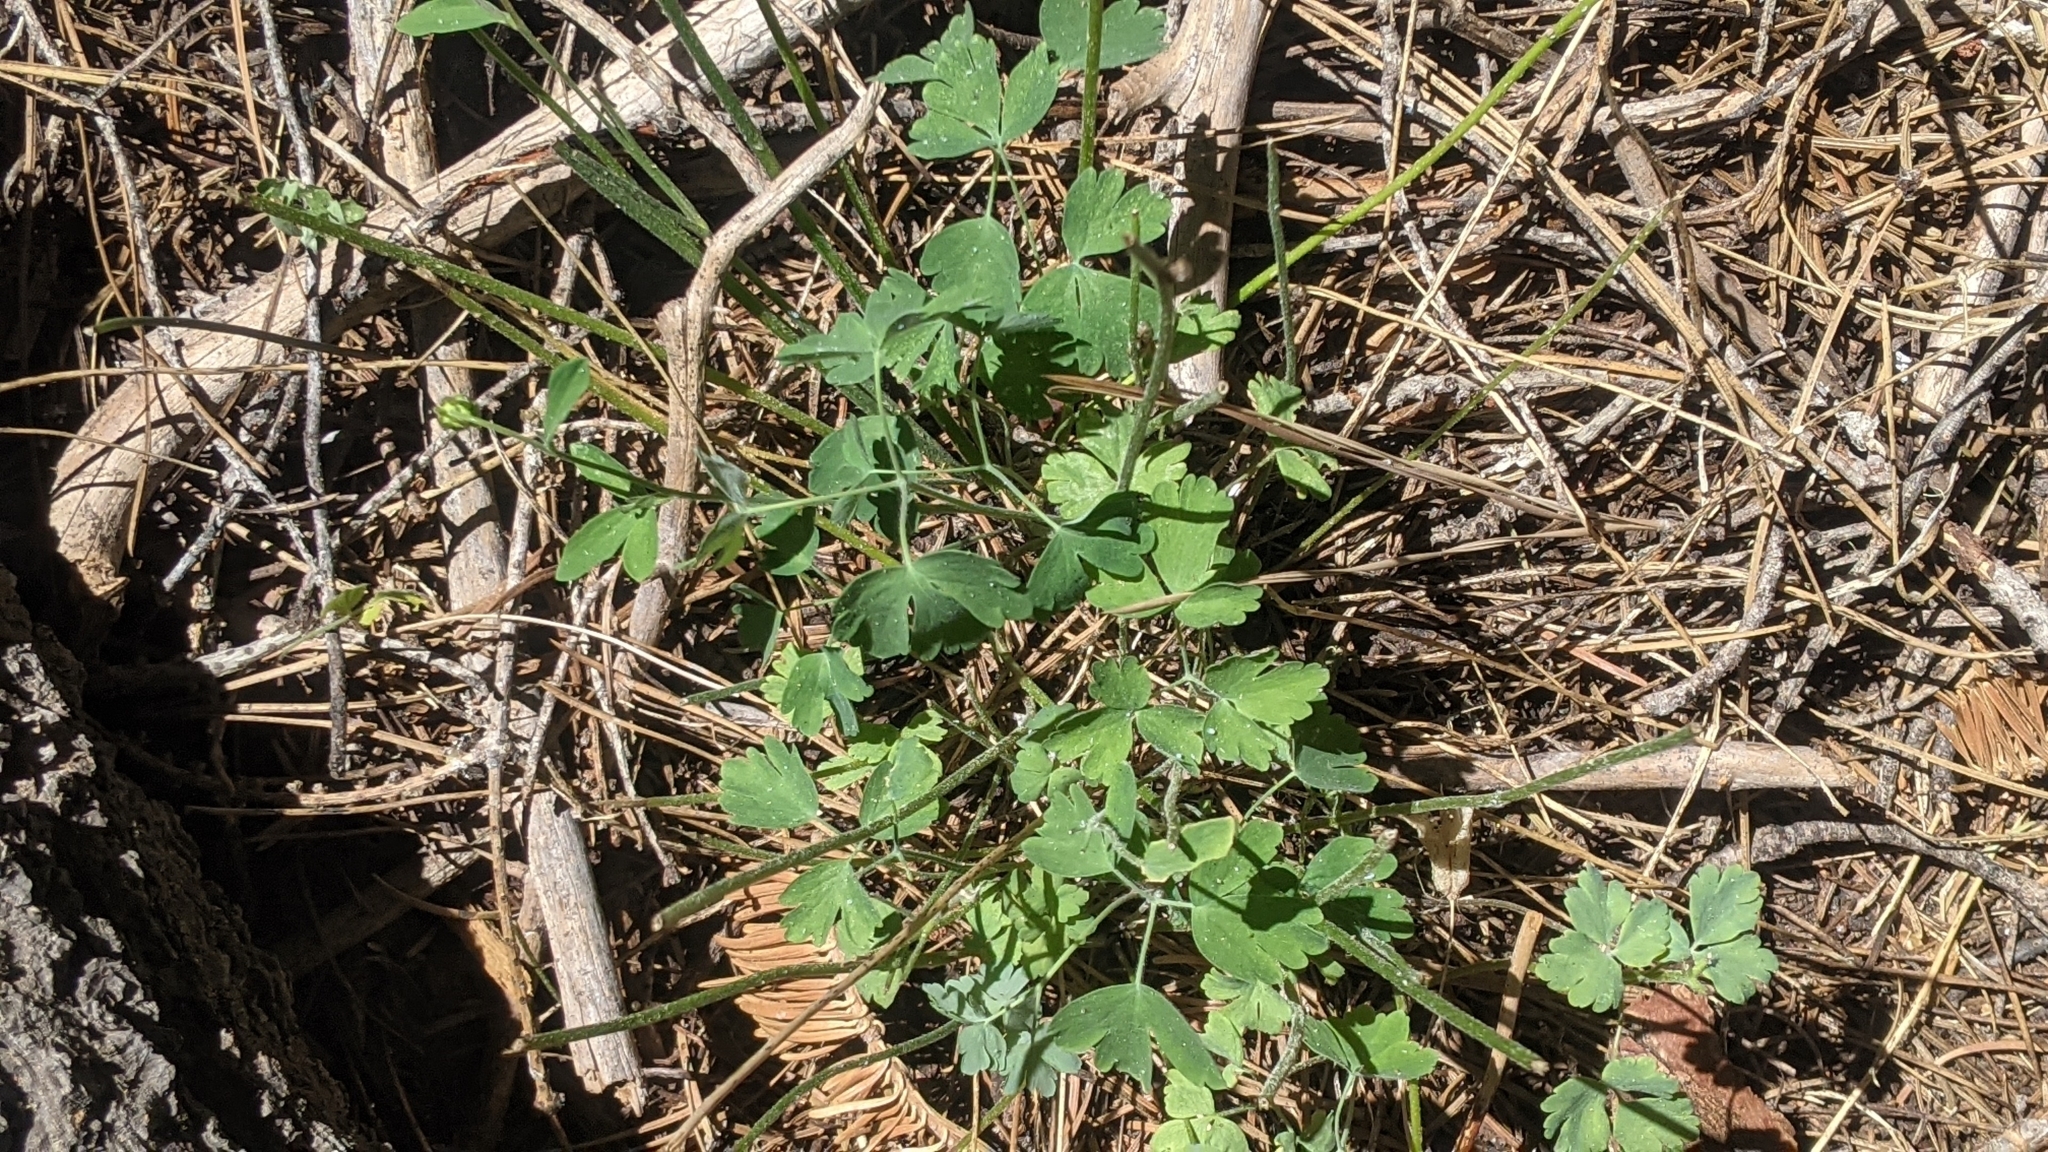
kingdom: Plantae
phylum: Tracheophyta
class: Magnoliopsida
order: Ranunculales
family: Ranunculaceae
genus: Aquilegia
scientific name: Aquilegia formosa
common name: Sitka columbine
